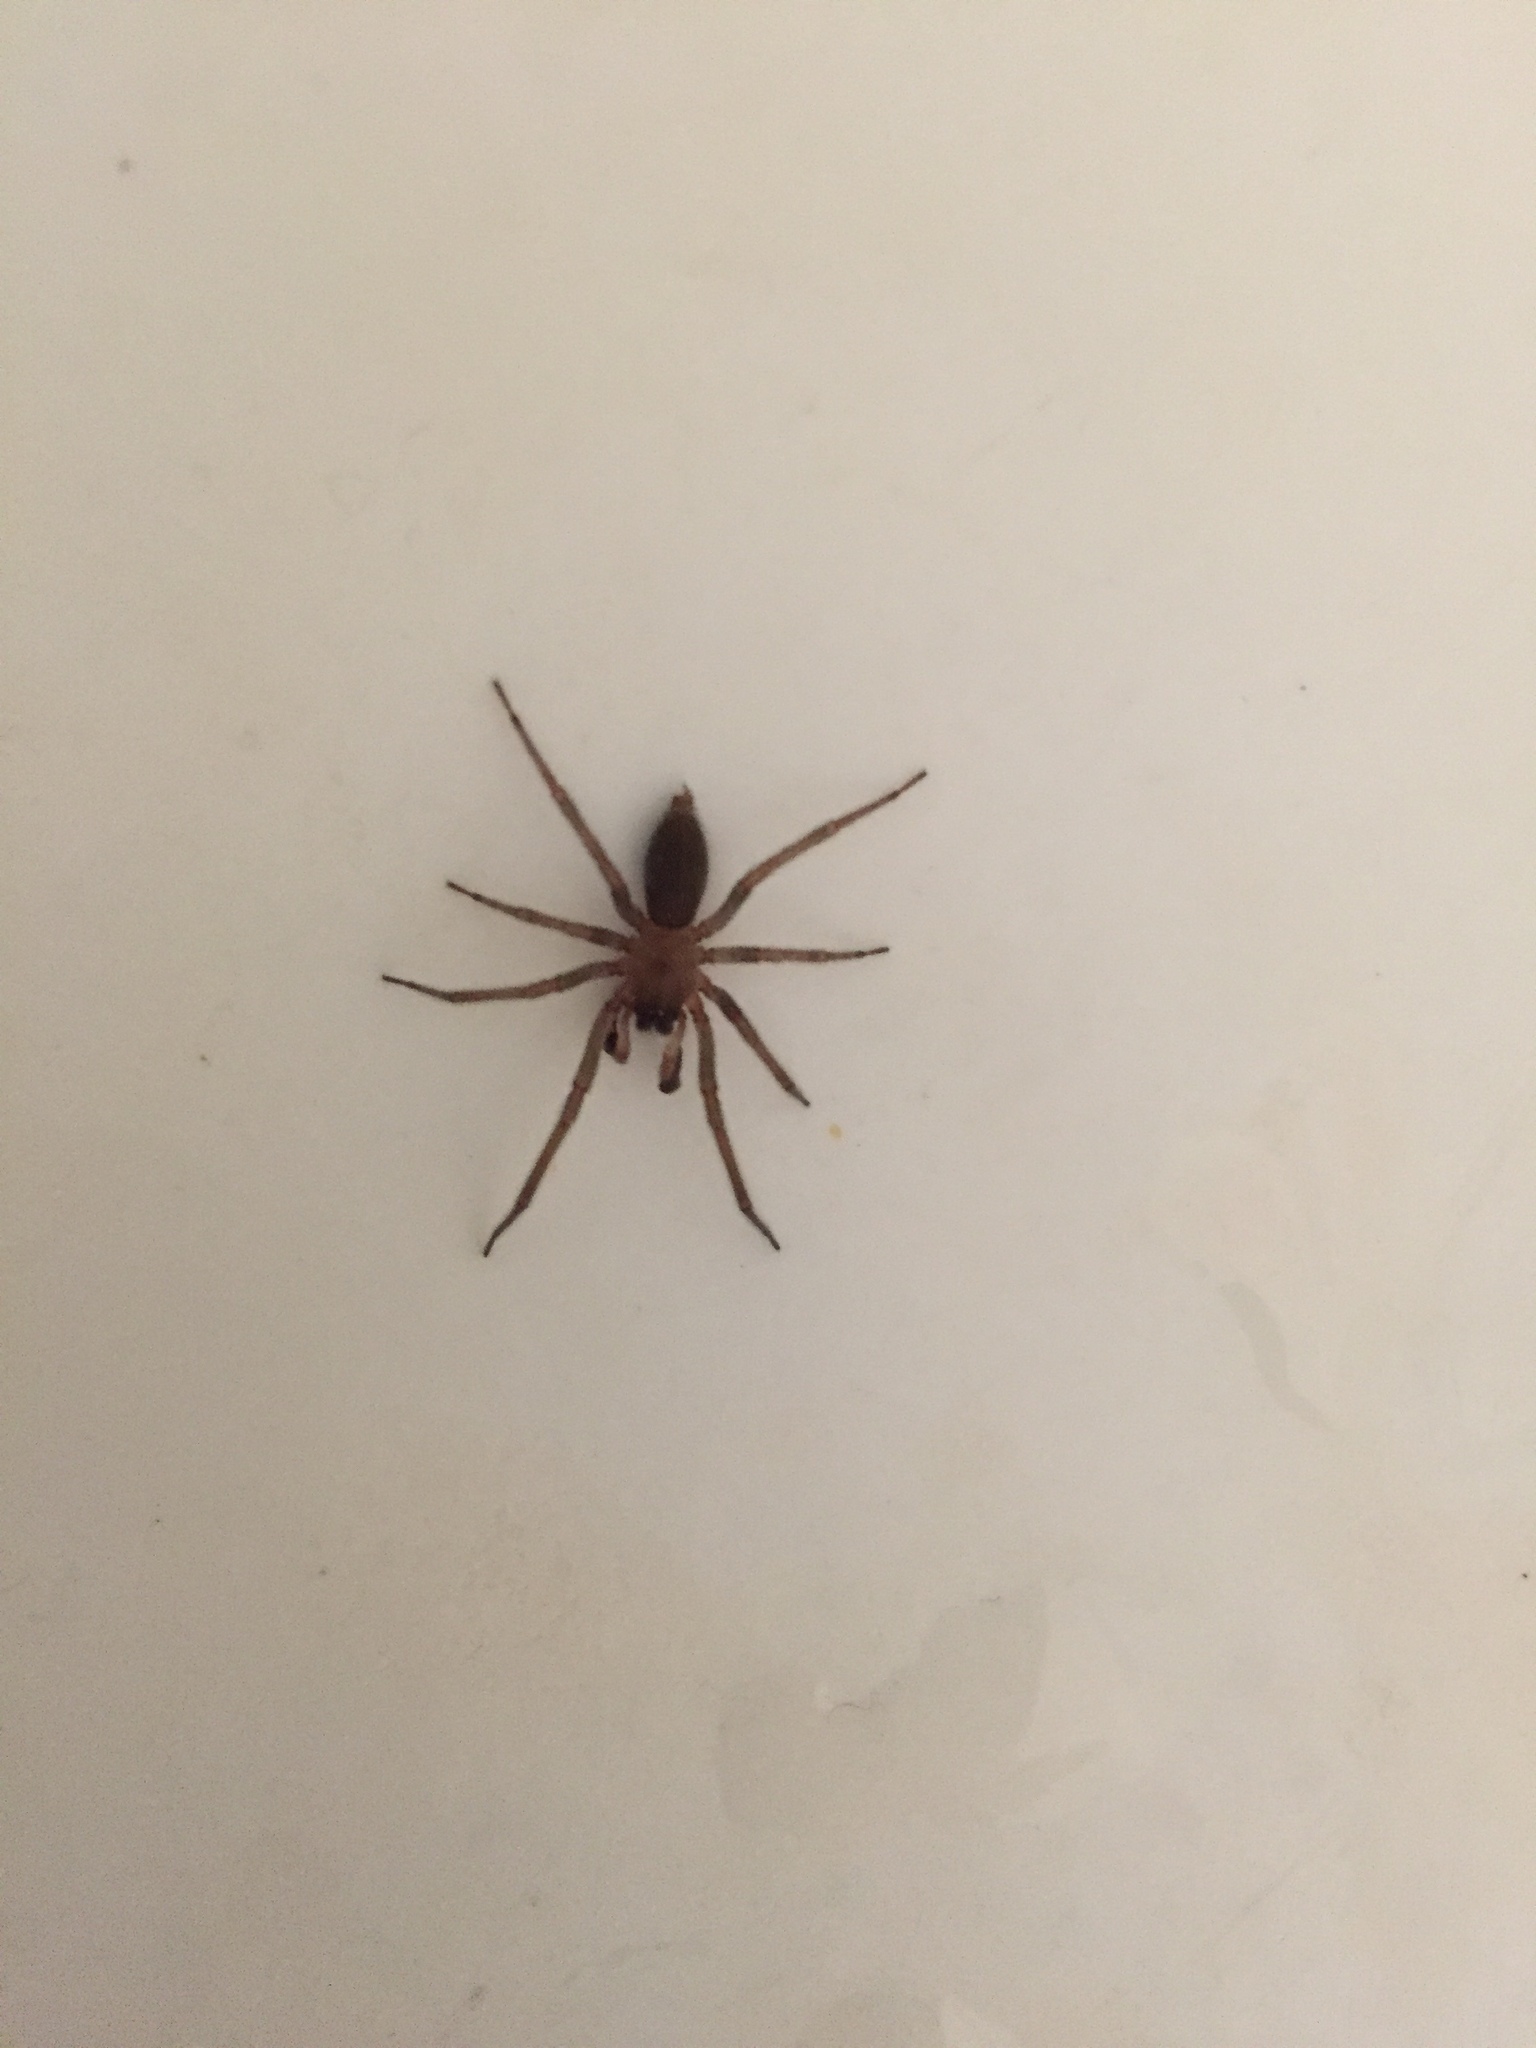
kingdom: Animalia
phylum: Arthropoda
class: Arachnida
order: Araneae
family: Cheiracanthiidae
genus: Strotarchus
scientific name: Strotarchus piscatorius
